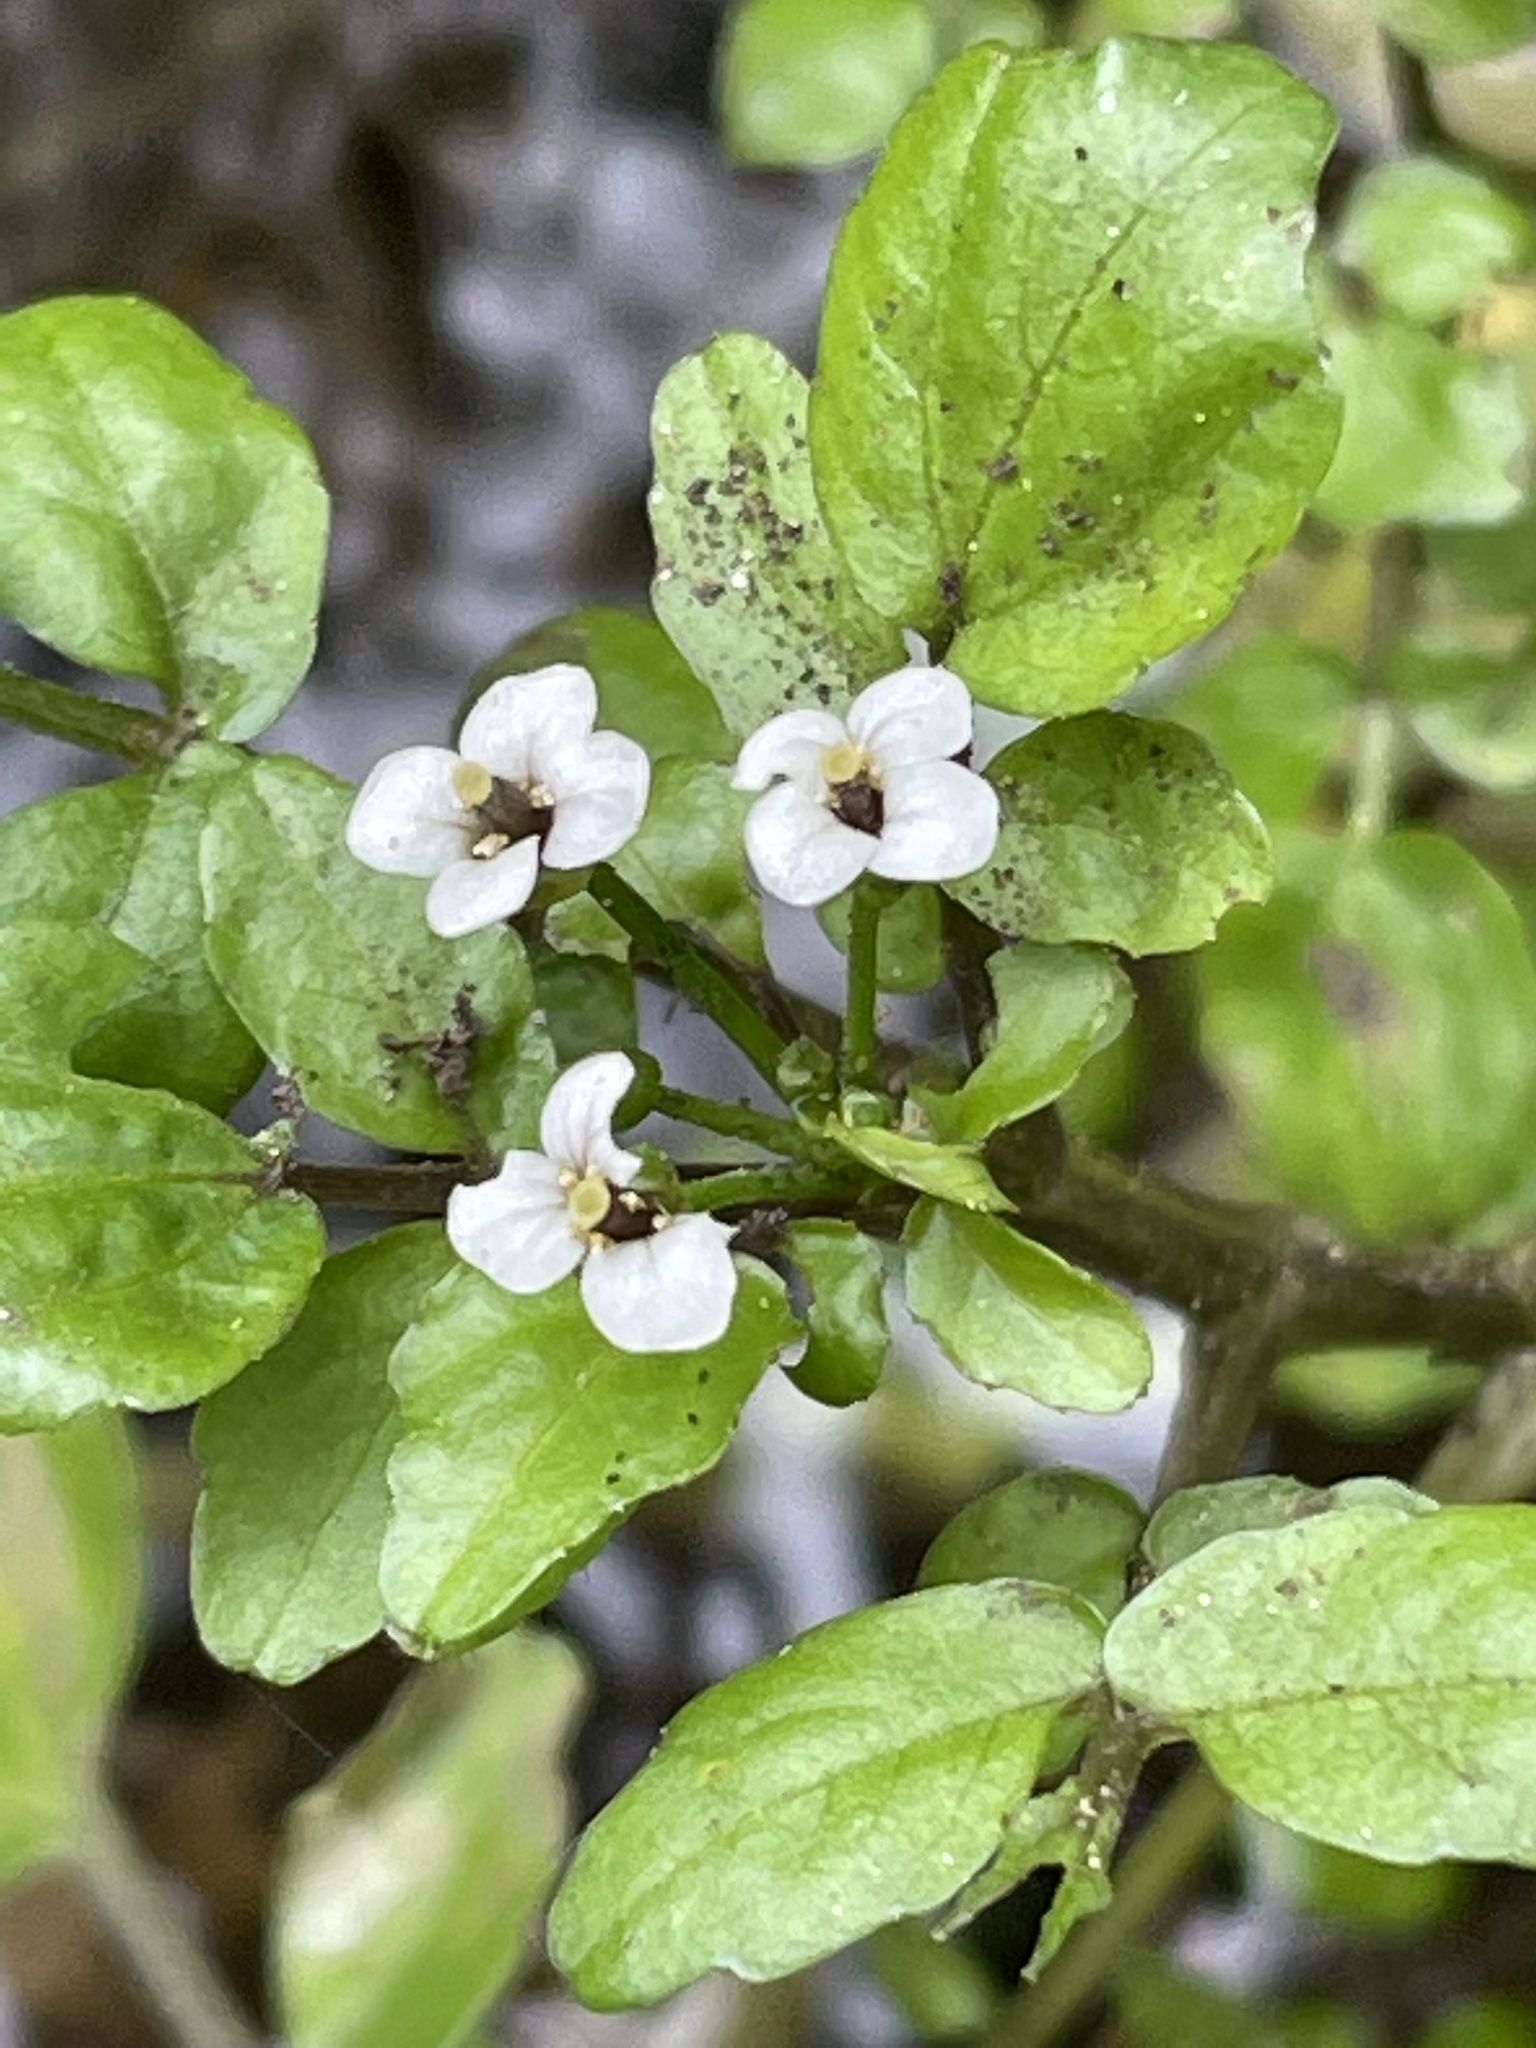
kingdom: Plantae
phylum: Tracheophyta
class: Magnoliopsida
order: Brassicales
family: Brassicaceae
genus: Nasturtium
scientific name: Nasturtium officinale
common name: Watercress
